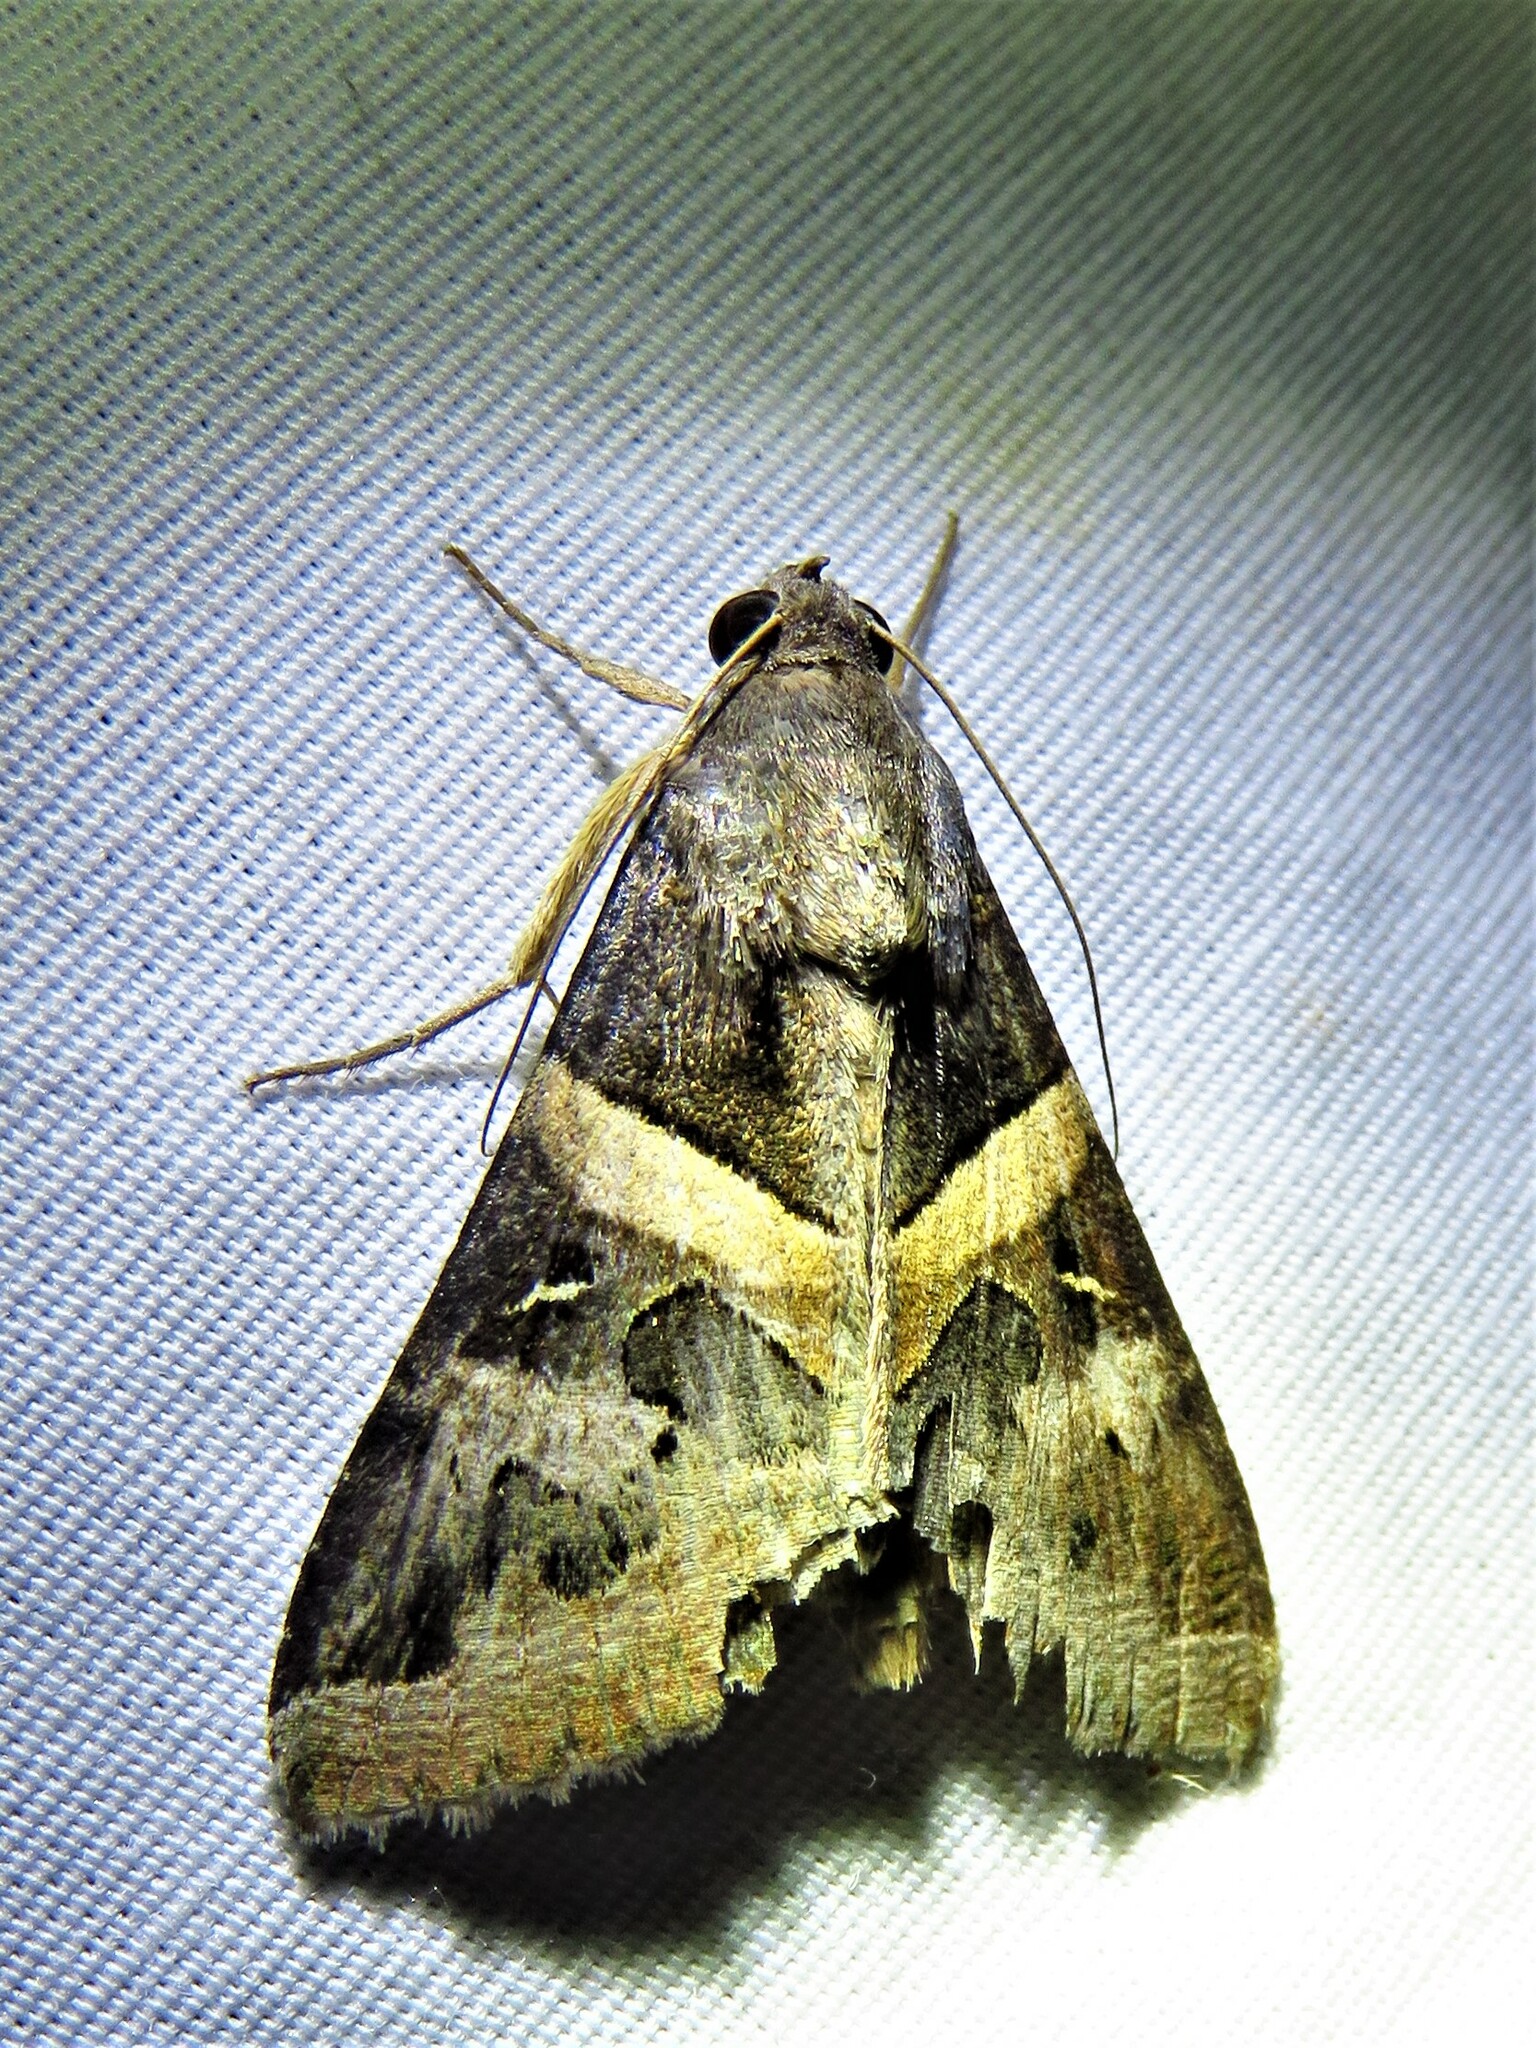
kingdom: Animalia
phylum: Arthropoda
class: Insecta
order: Lepidoptera
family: Erebidae
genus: Melipotis
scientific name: Melipotis indomita
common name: Moth
